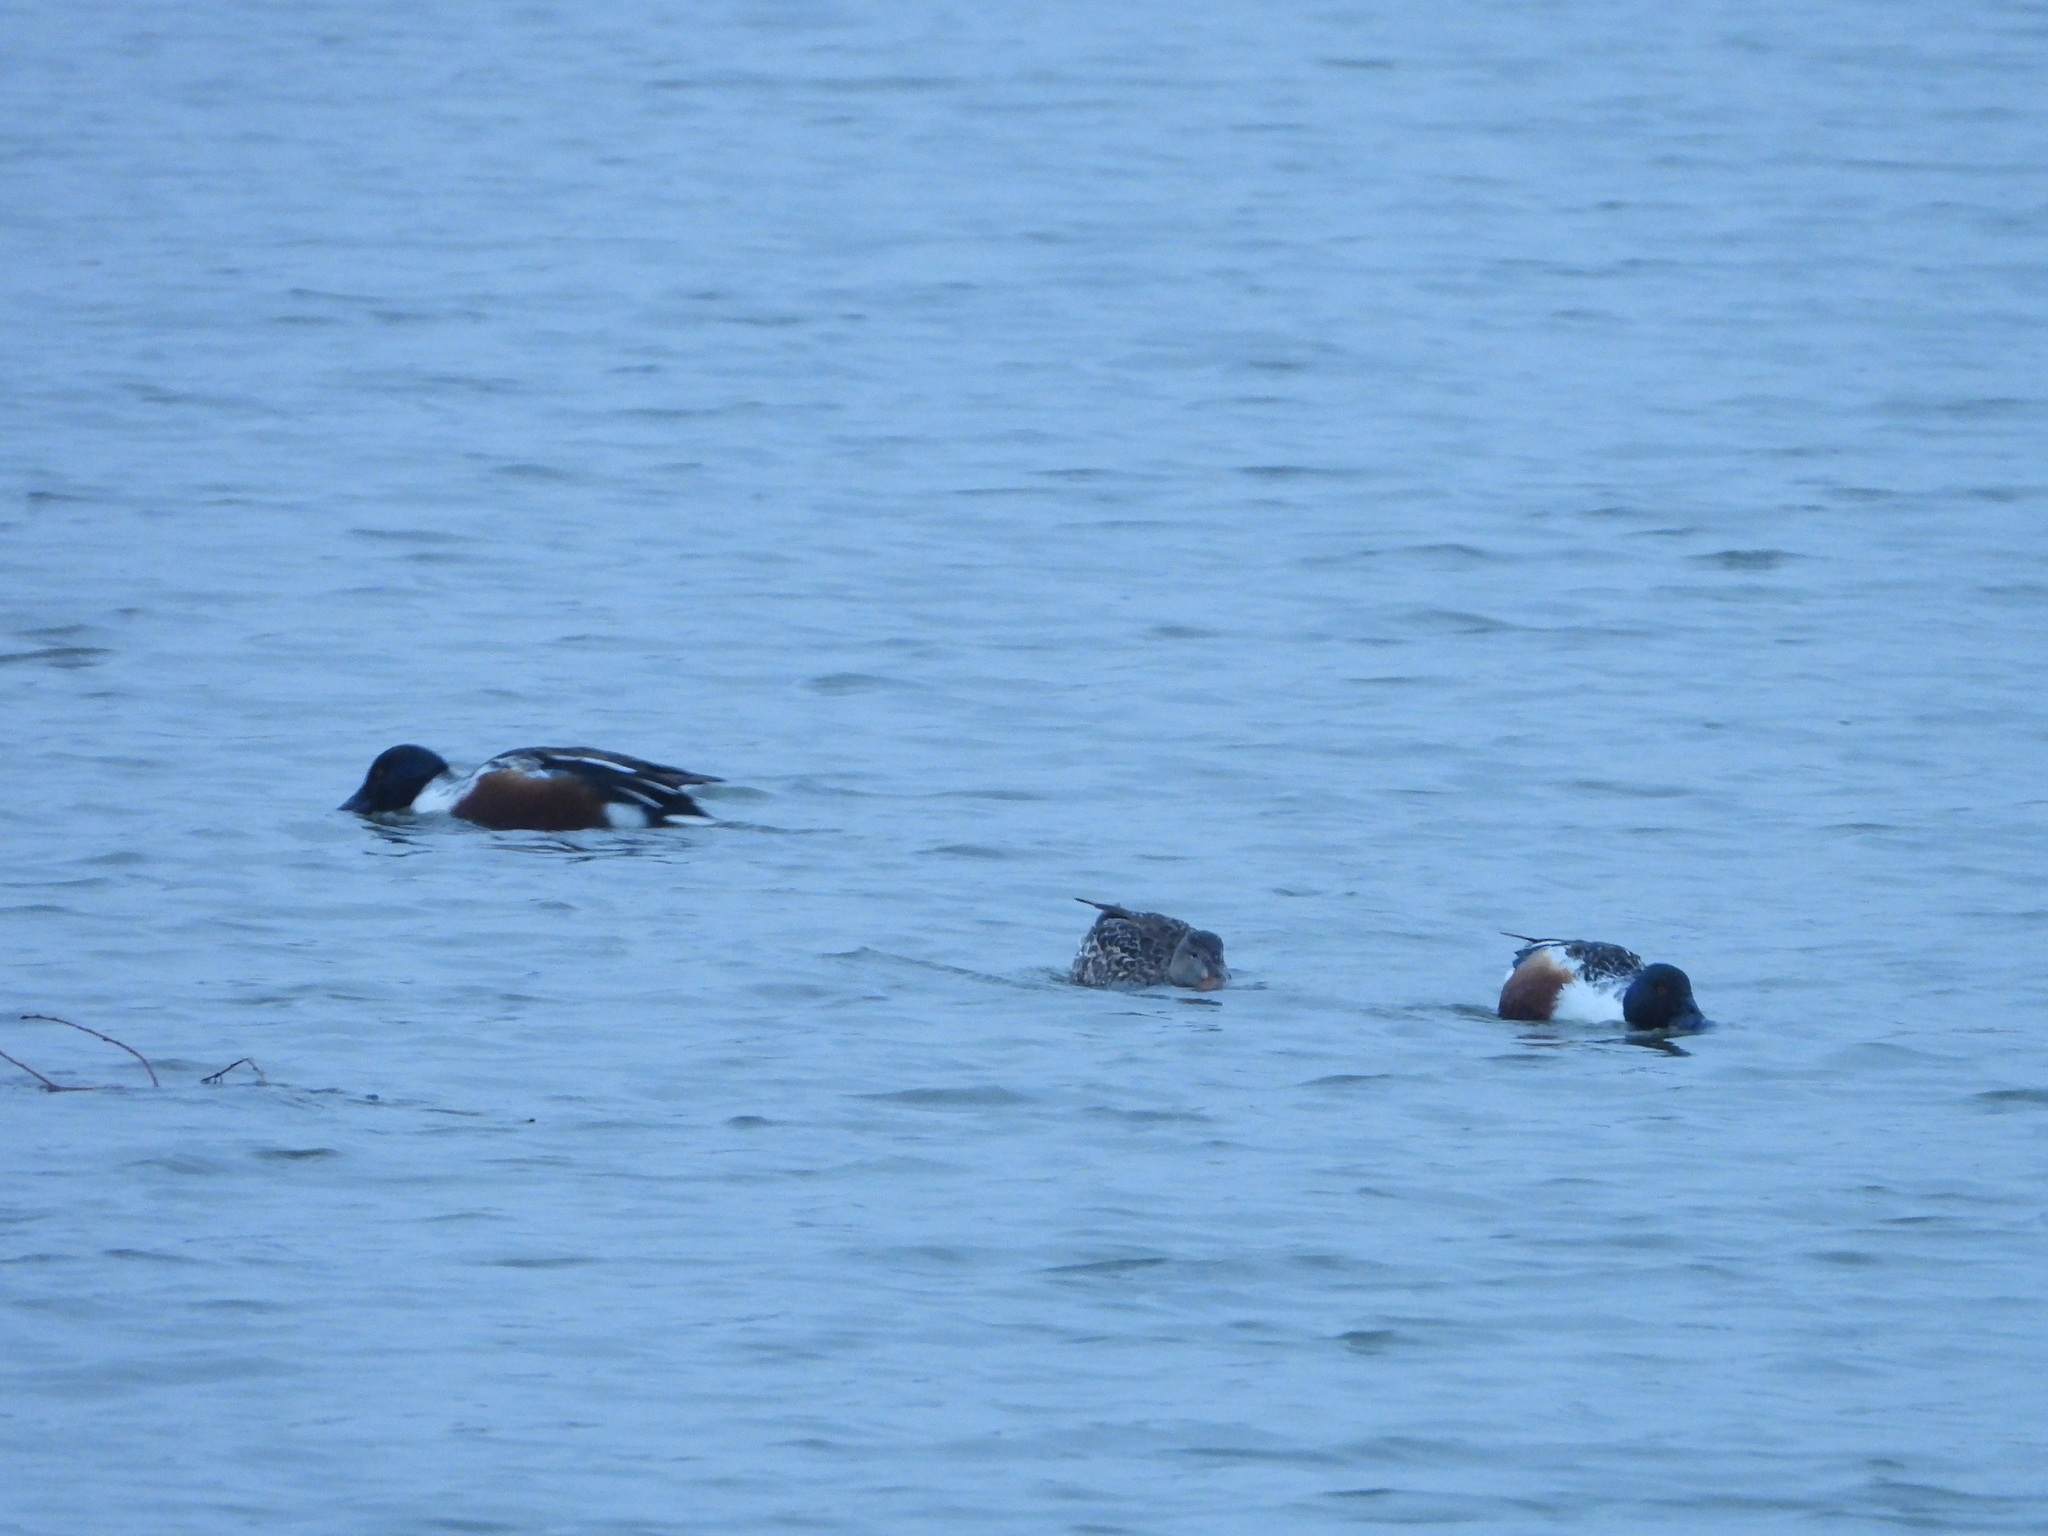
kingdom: Animalia
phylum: Chordata
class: Aves
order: Anseriformes
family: Anatidae
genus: Spatula
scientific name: Spatula clypeata
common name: Northern shoveler
